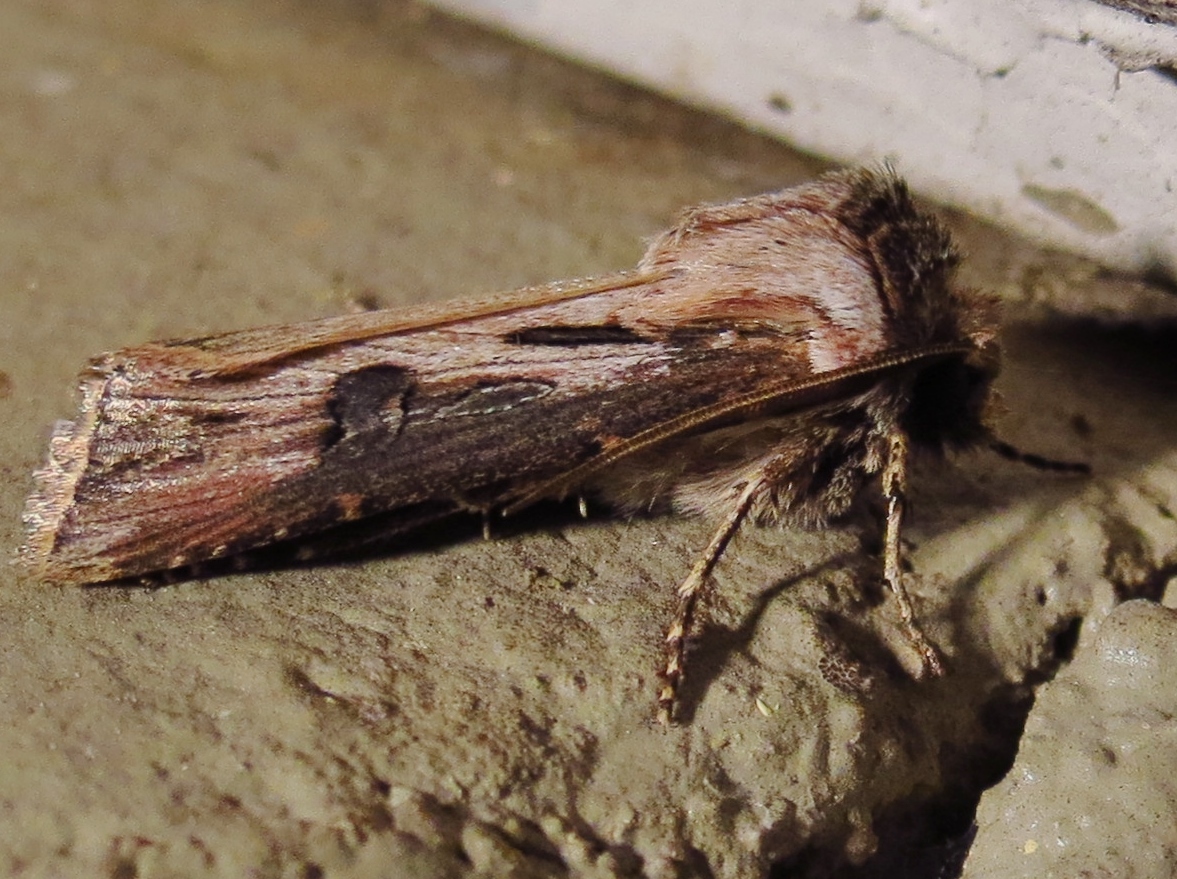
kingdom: Animalia
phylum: Arthropoda
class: Insecta
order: Lepidoptera
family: Noctuidae
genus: Agrotis
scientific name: Agrotis venerabilis
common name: Venerable dart
